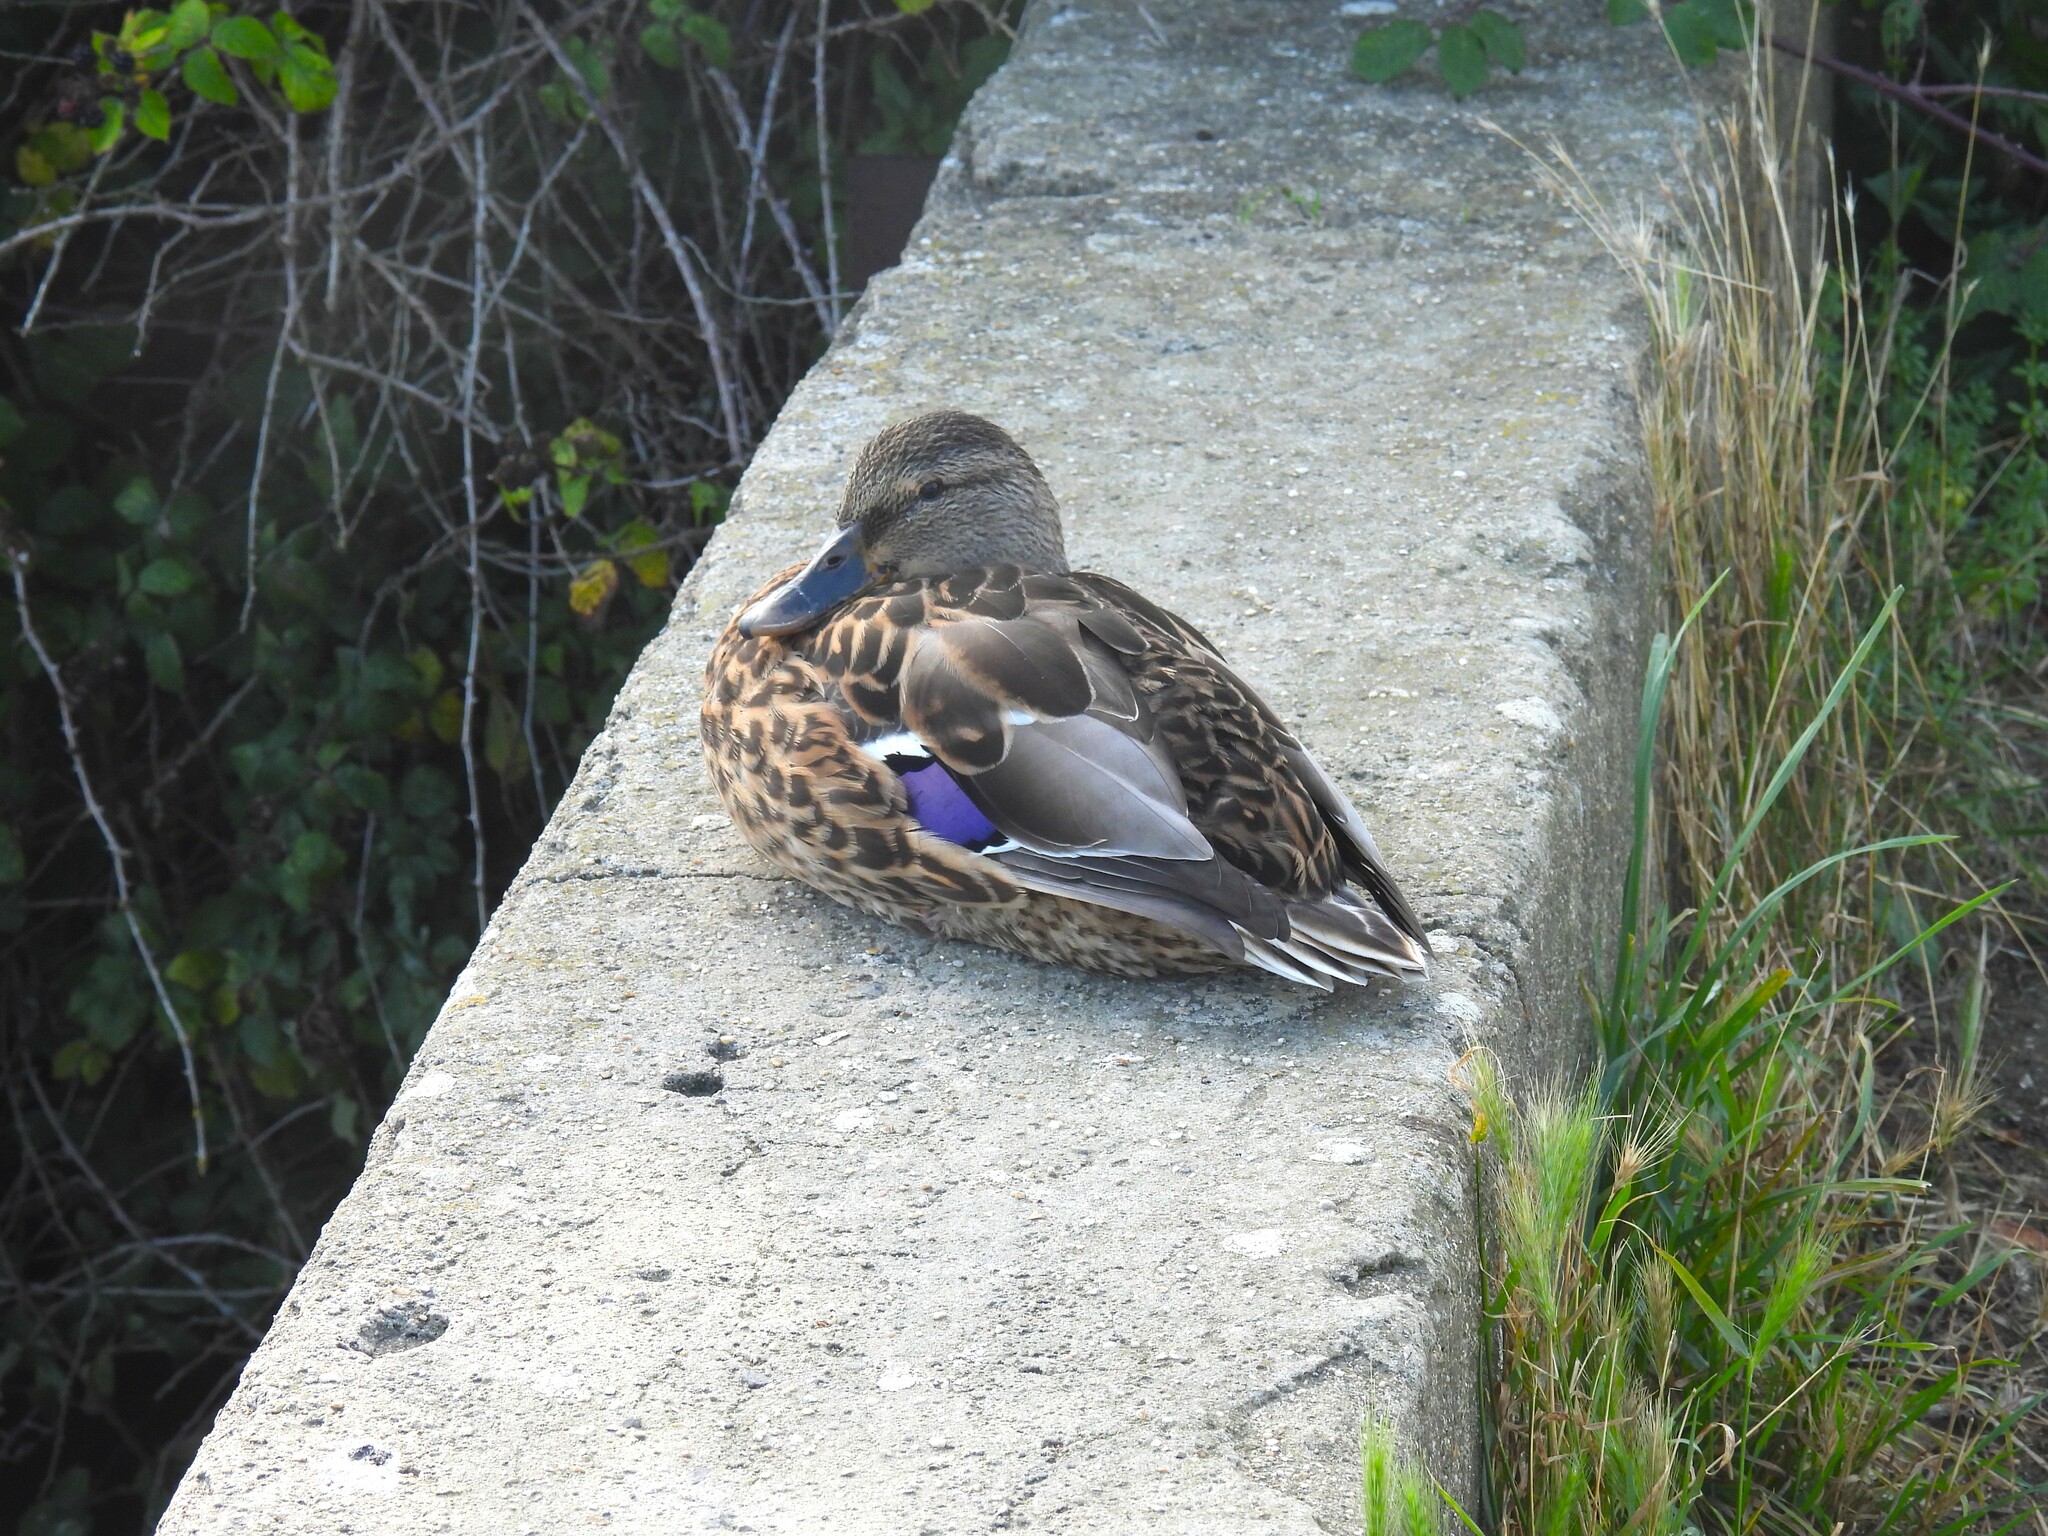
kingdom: Animalia
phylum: Chordata
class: Aves
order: Anseriformes
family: Anatidae
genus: Anas
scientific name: Anas platyrhynchos
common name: Mallard
